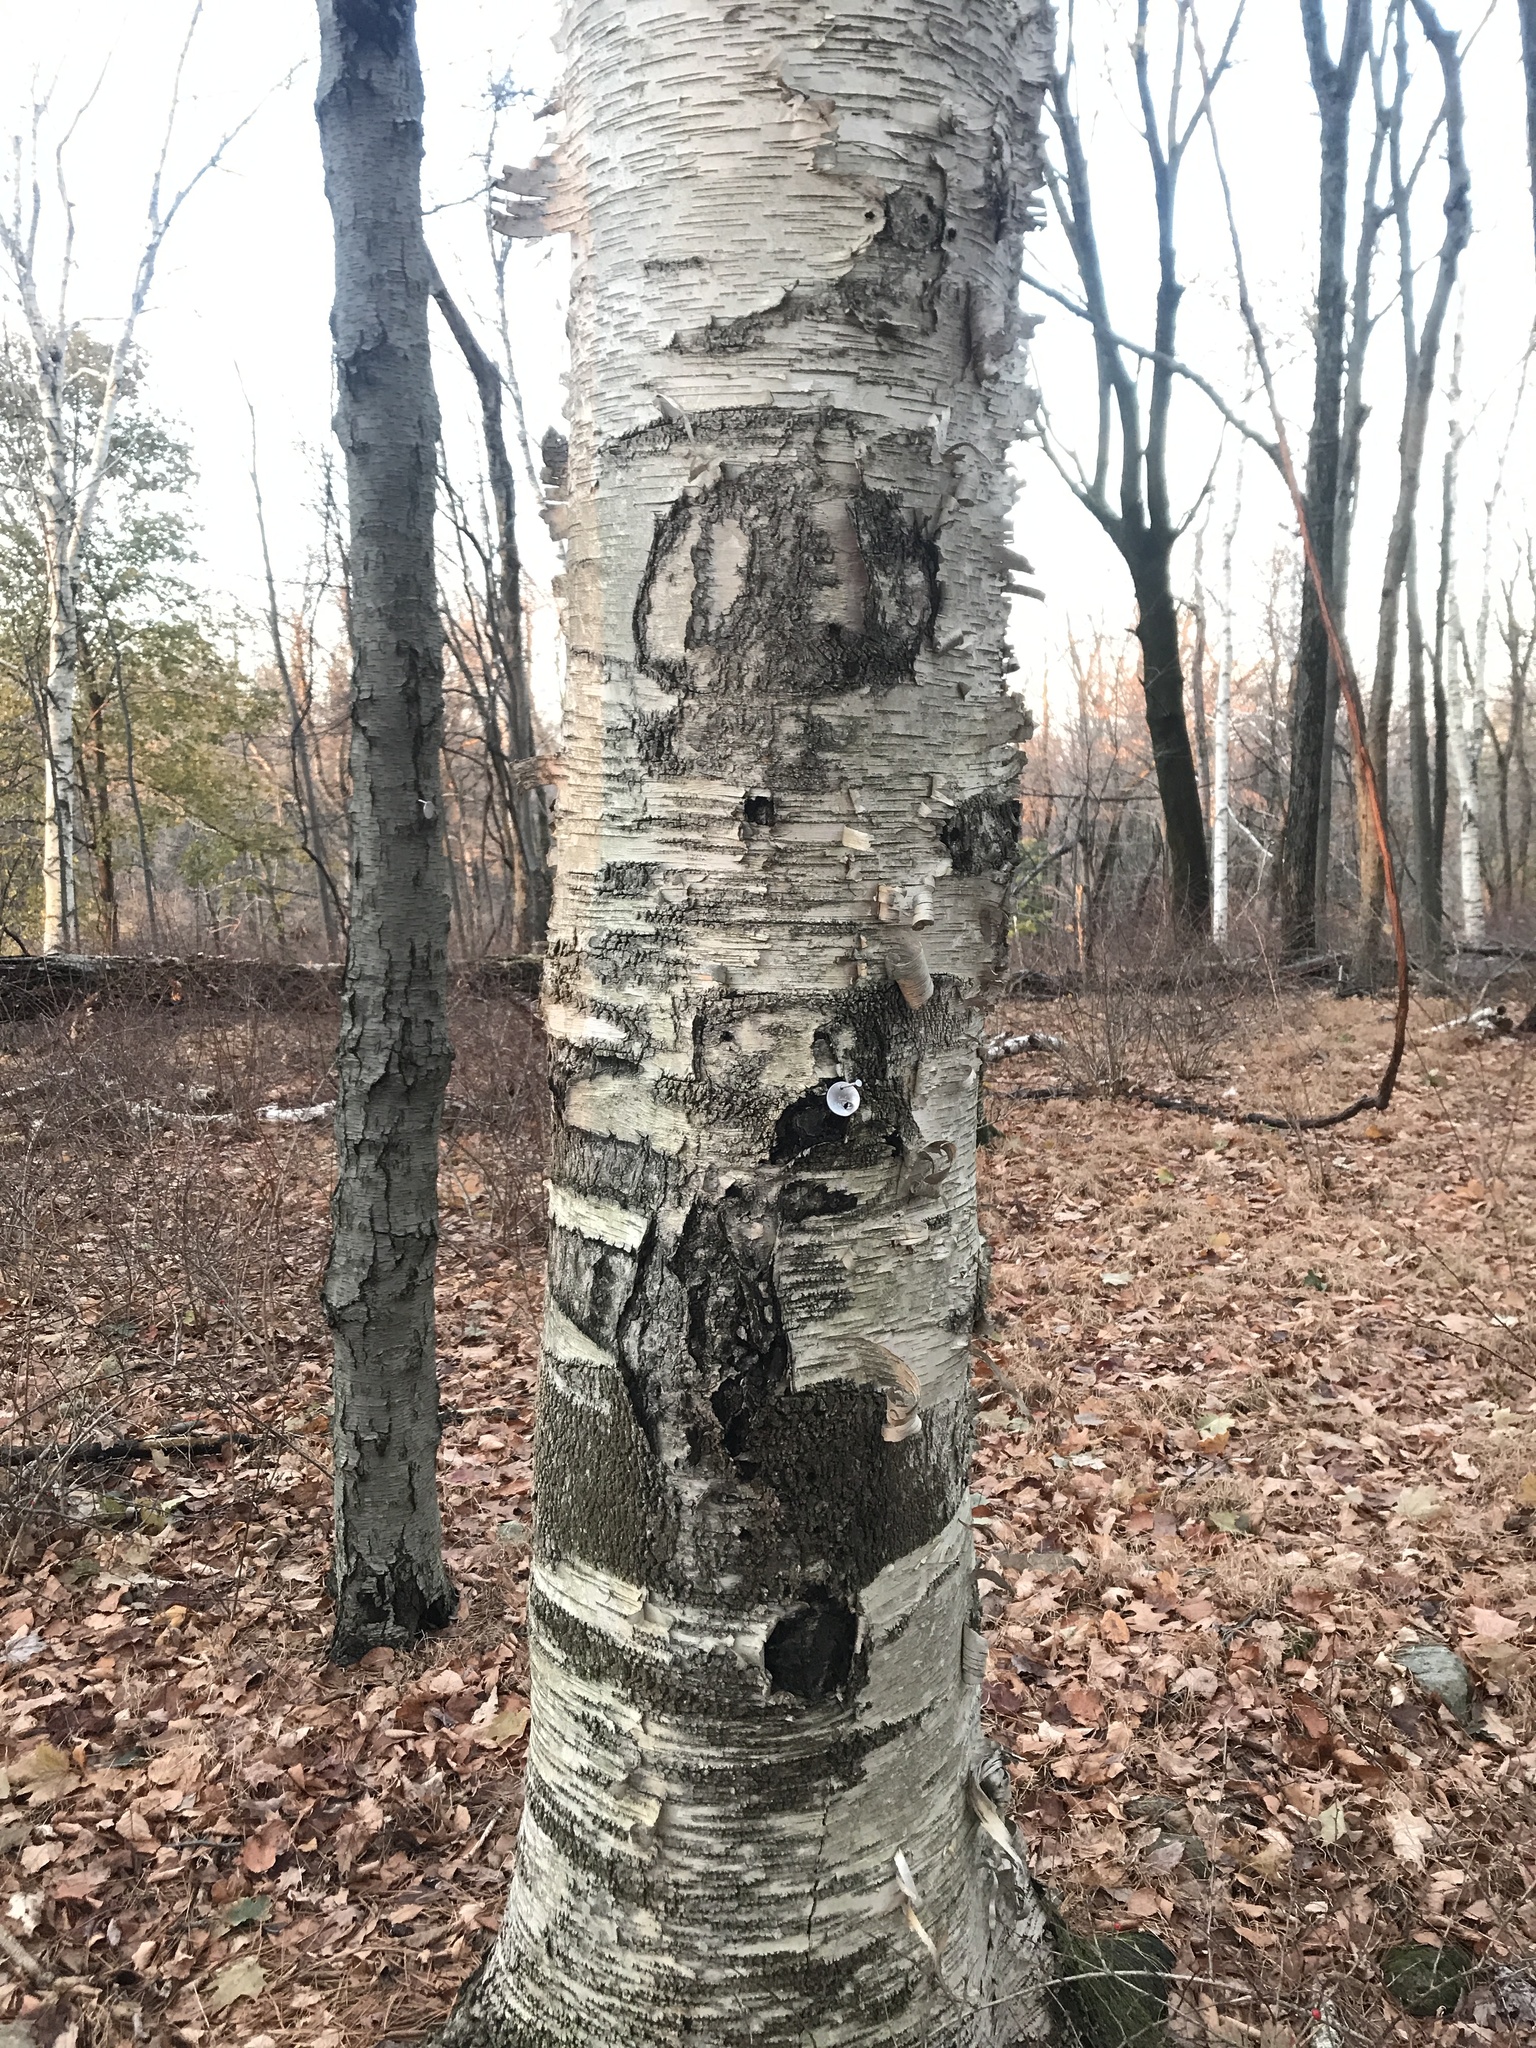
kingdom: Plantae
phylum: Tracheophyta
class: Magnoliopsida
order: Fagales
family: Betulaceae
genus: Betula
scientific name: Betula papyrifera
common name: Paper birch
